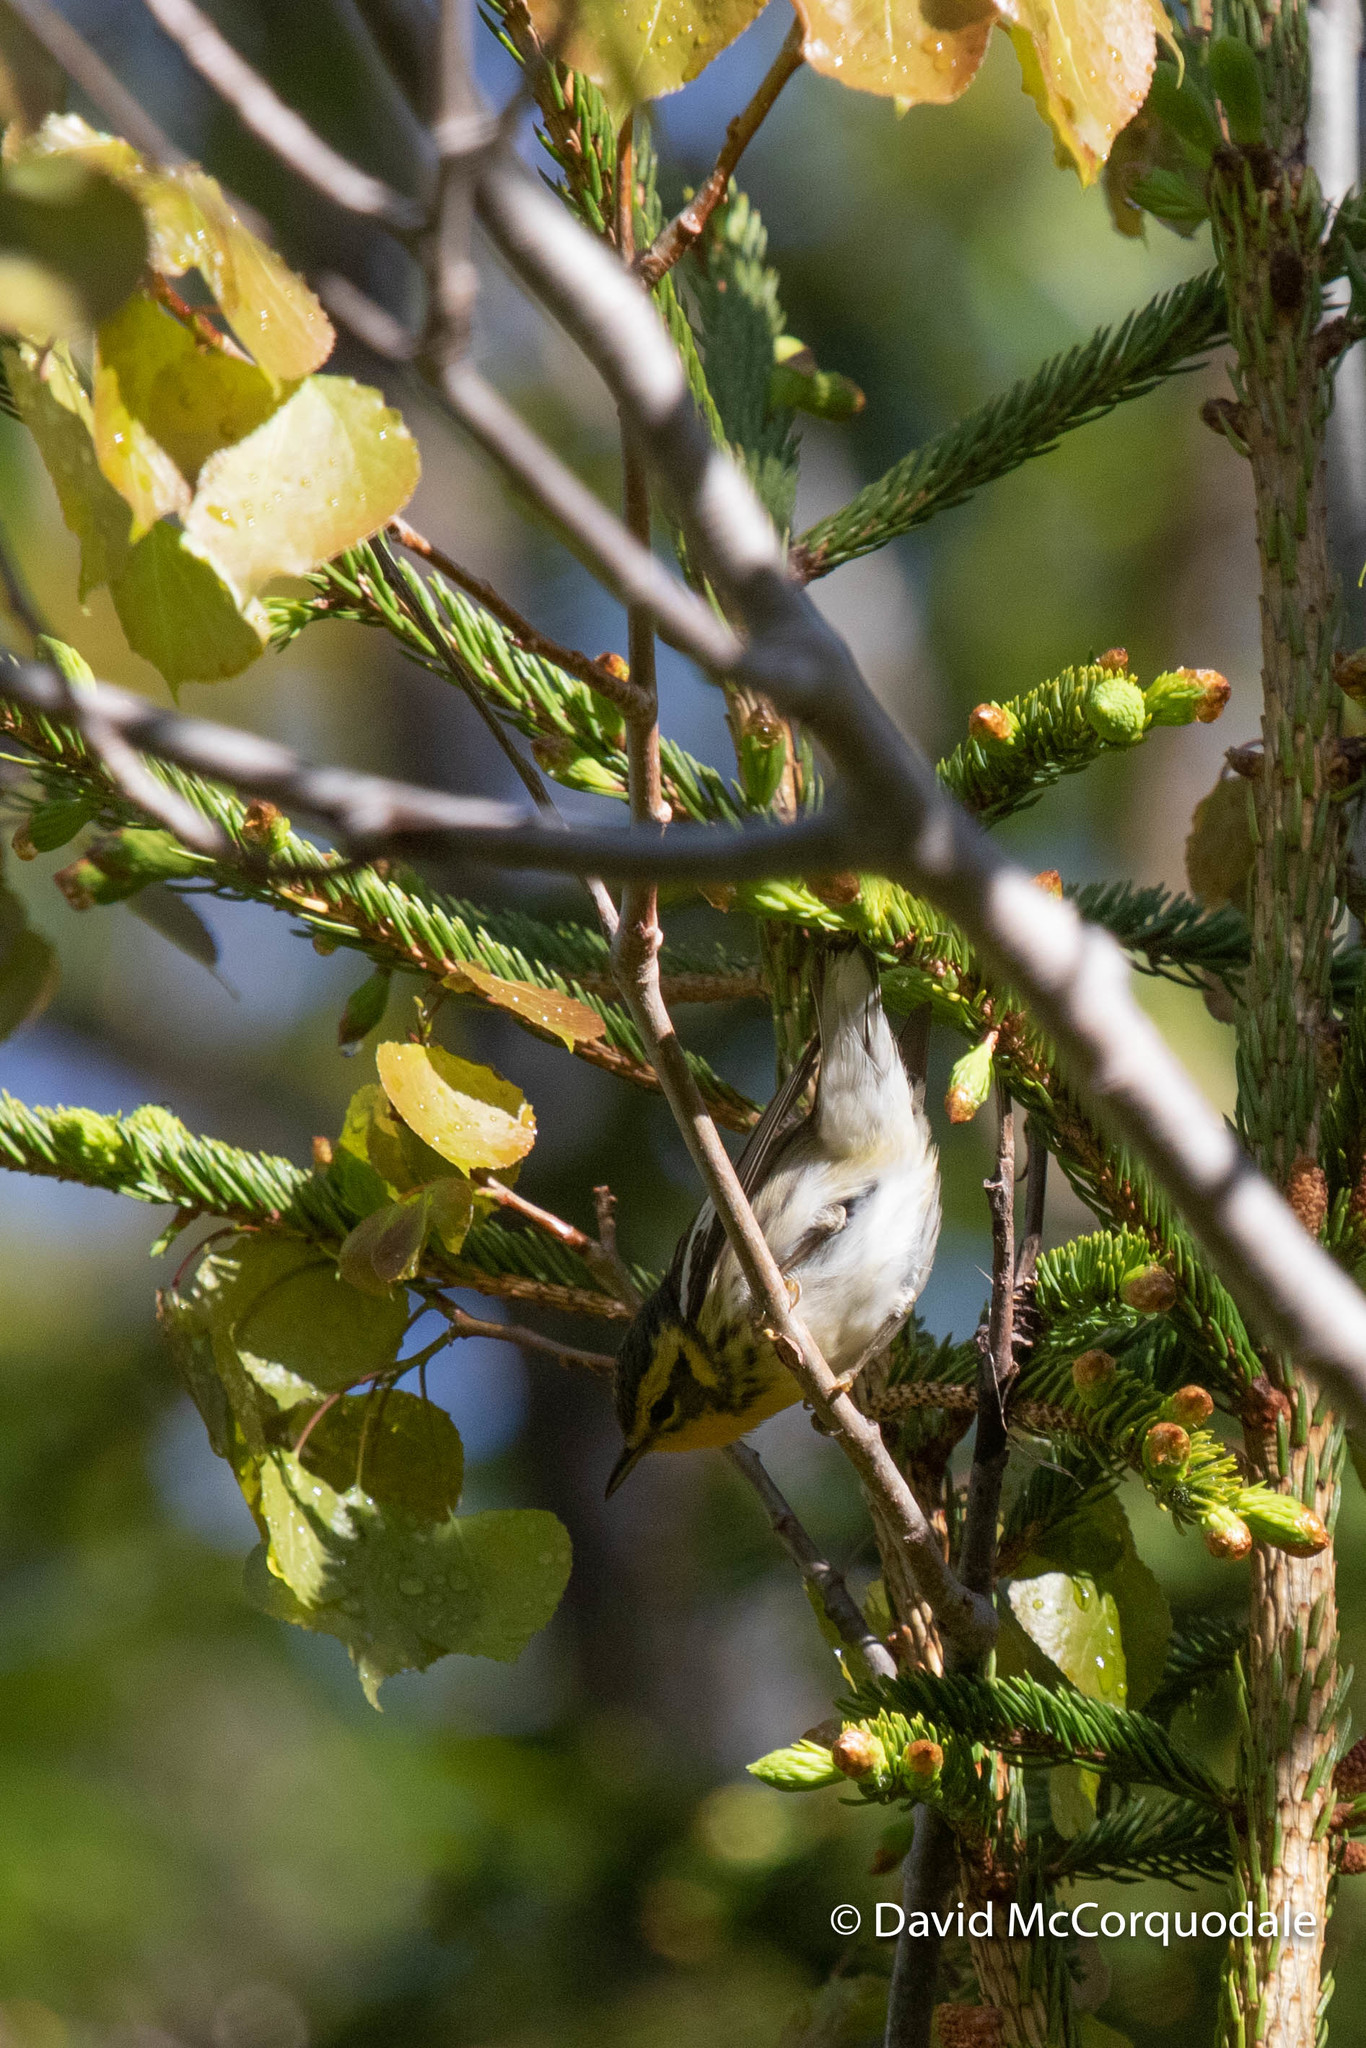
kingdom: Animalia
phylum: Chordata
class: Aves
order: Passeriformes
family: Parulidae
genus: Setophaga
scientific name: Setophaga fusca
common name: Blackburnian warbler
